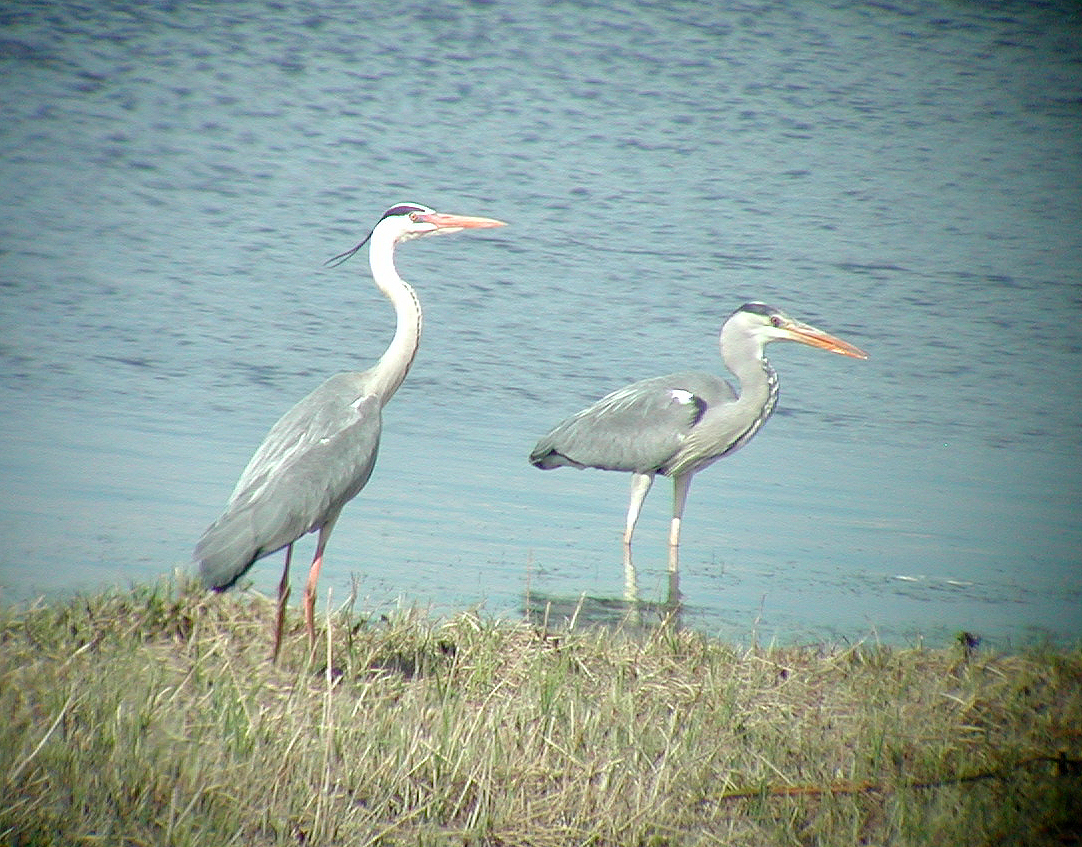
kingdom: Animalia
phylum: Chordata
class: Aves
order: Pelecaniformes
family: Ardeidae
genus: Ardea
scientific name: Ardea cinerea
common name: Grey heron
